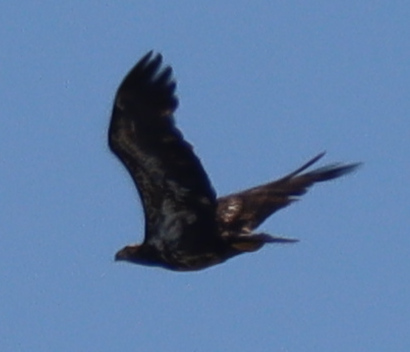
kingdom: Animalia
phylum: Chordata
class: Aves
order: Accipitriformes
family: Accipitridae
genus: Haliaeetus
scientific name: Haliaeetus leucocephalus
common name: Bald eagle
